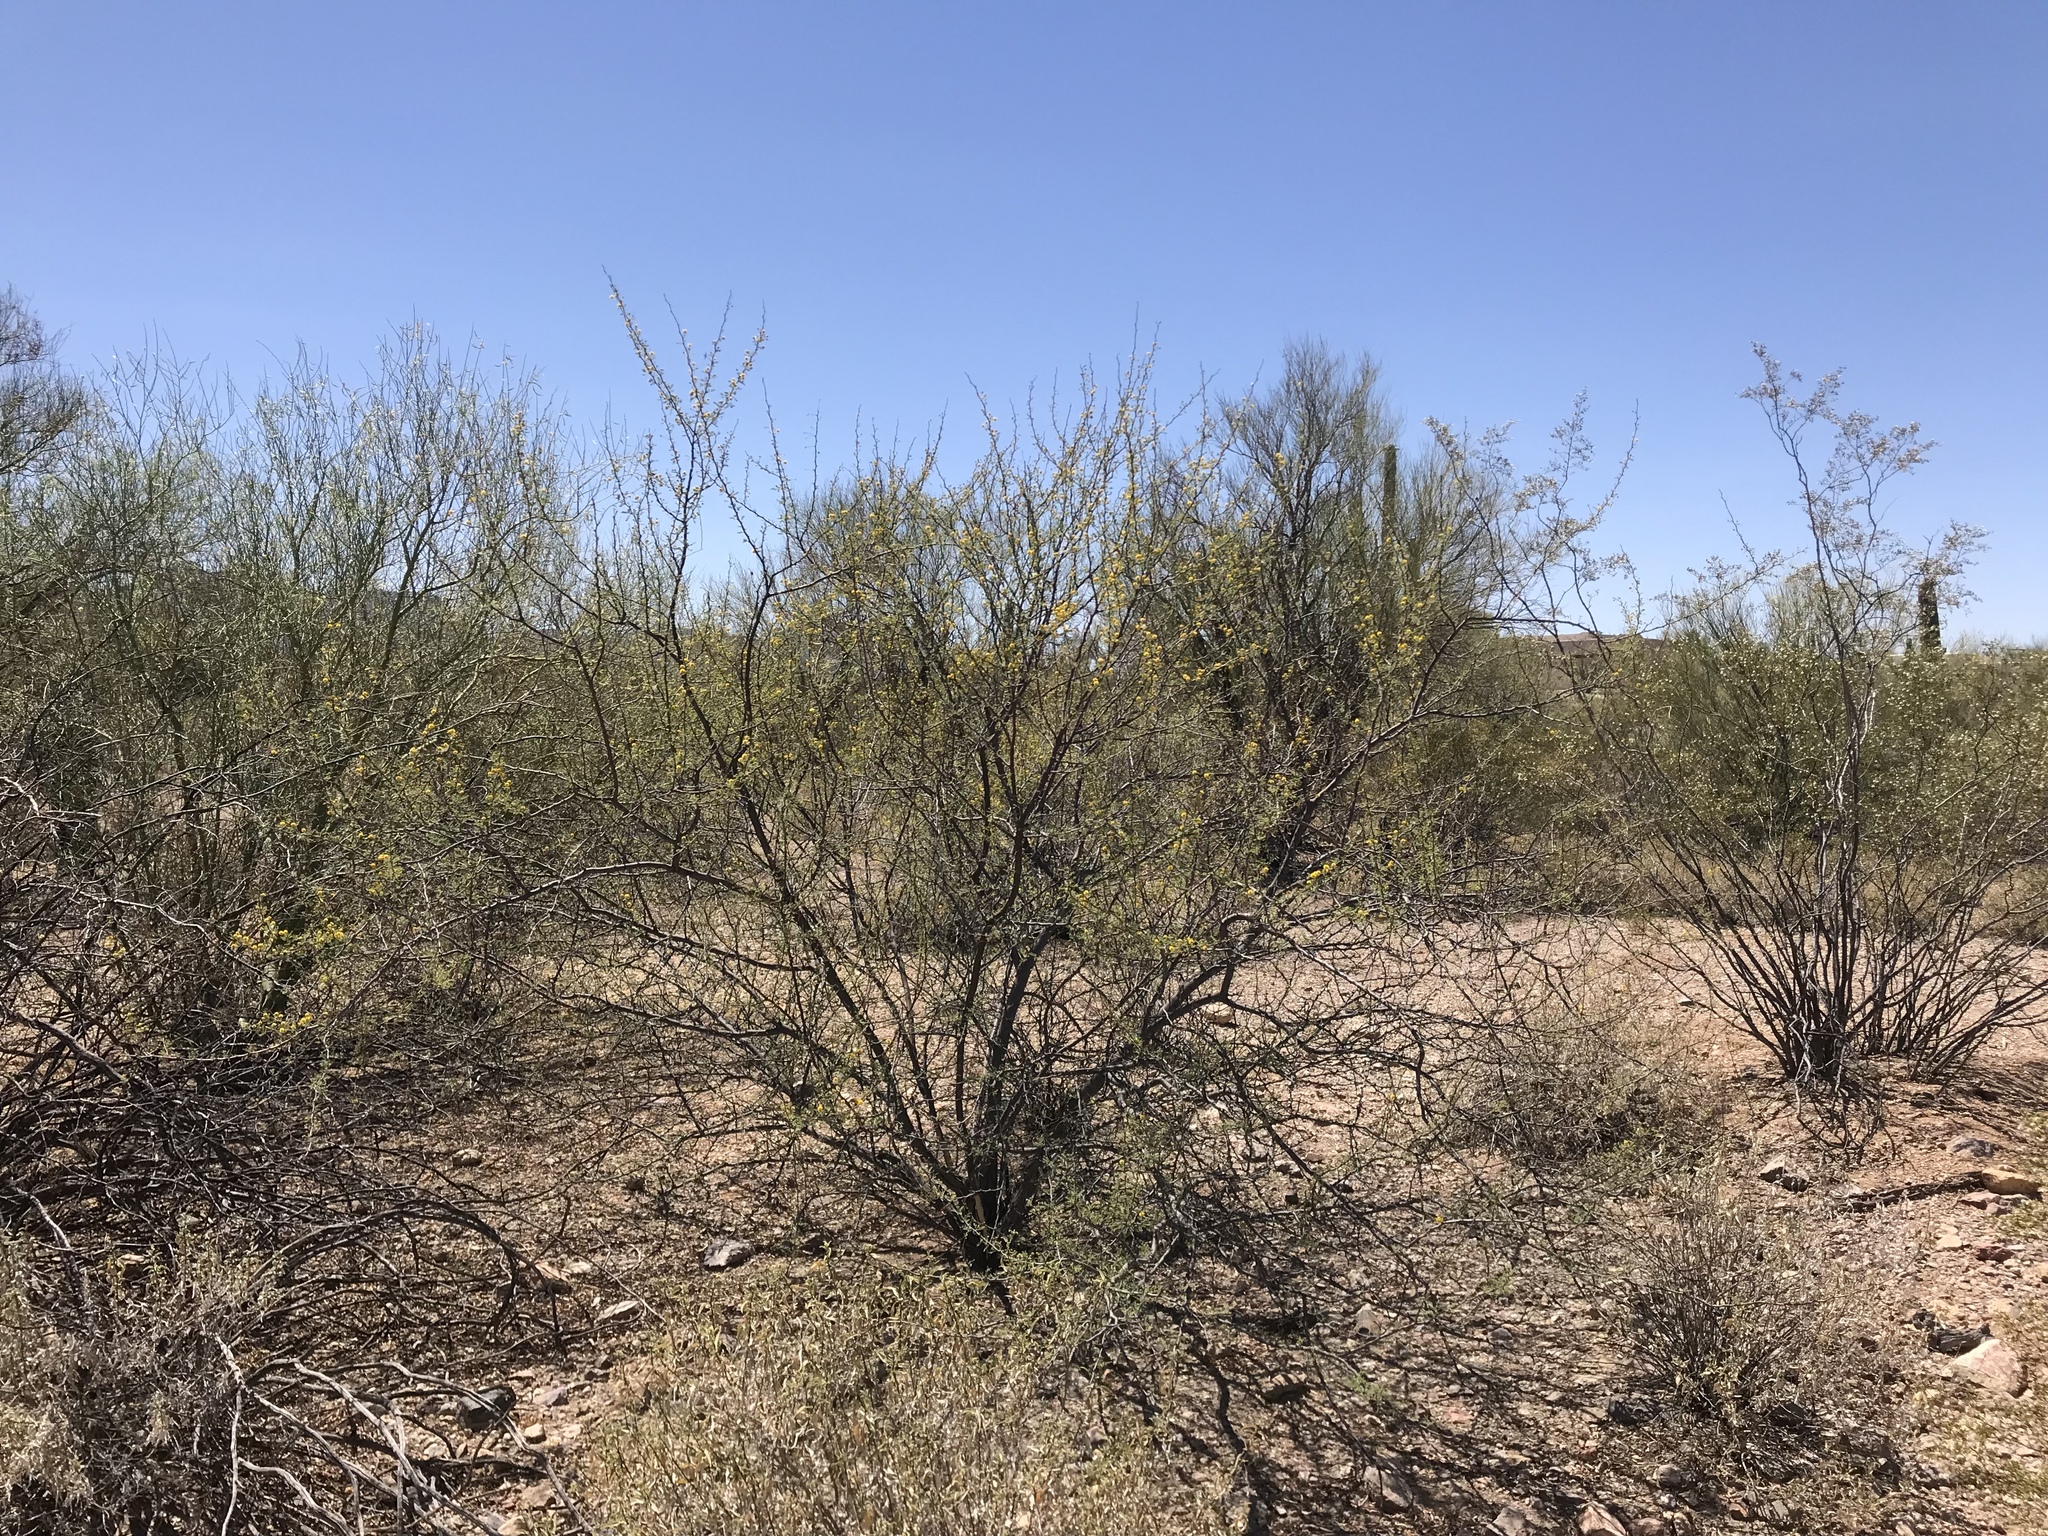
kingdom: Plantae
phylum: Tracheophyta
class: Magnoliopsida
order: Fabales
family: Fabaceae
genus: Vachellia
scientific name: Vachellia constricta
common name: Mescat acacia
